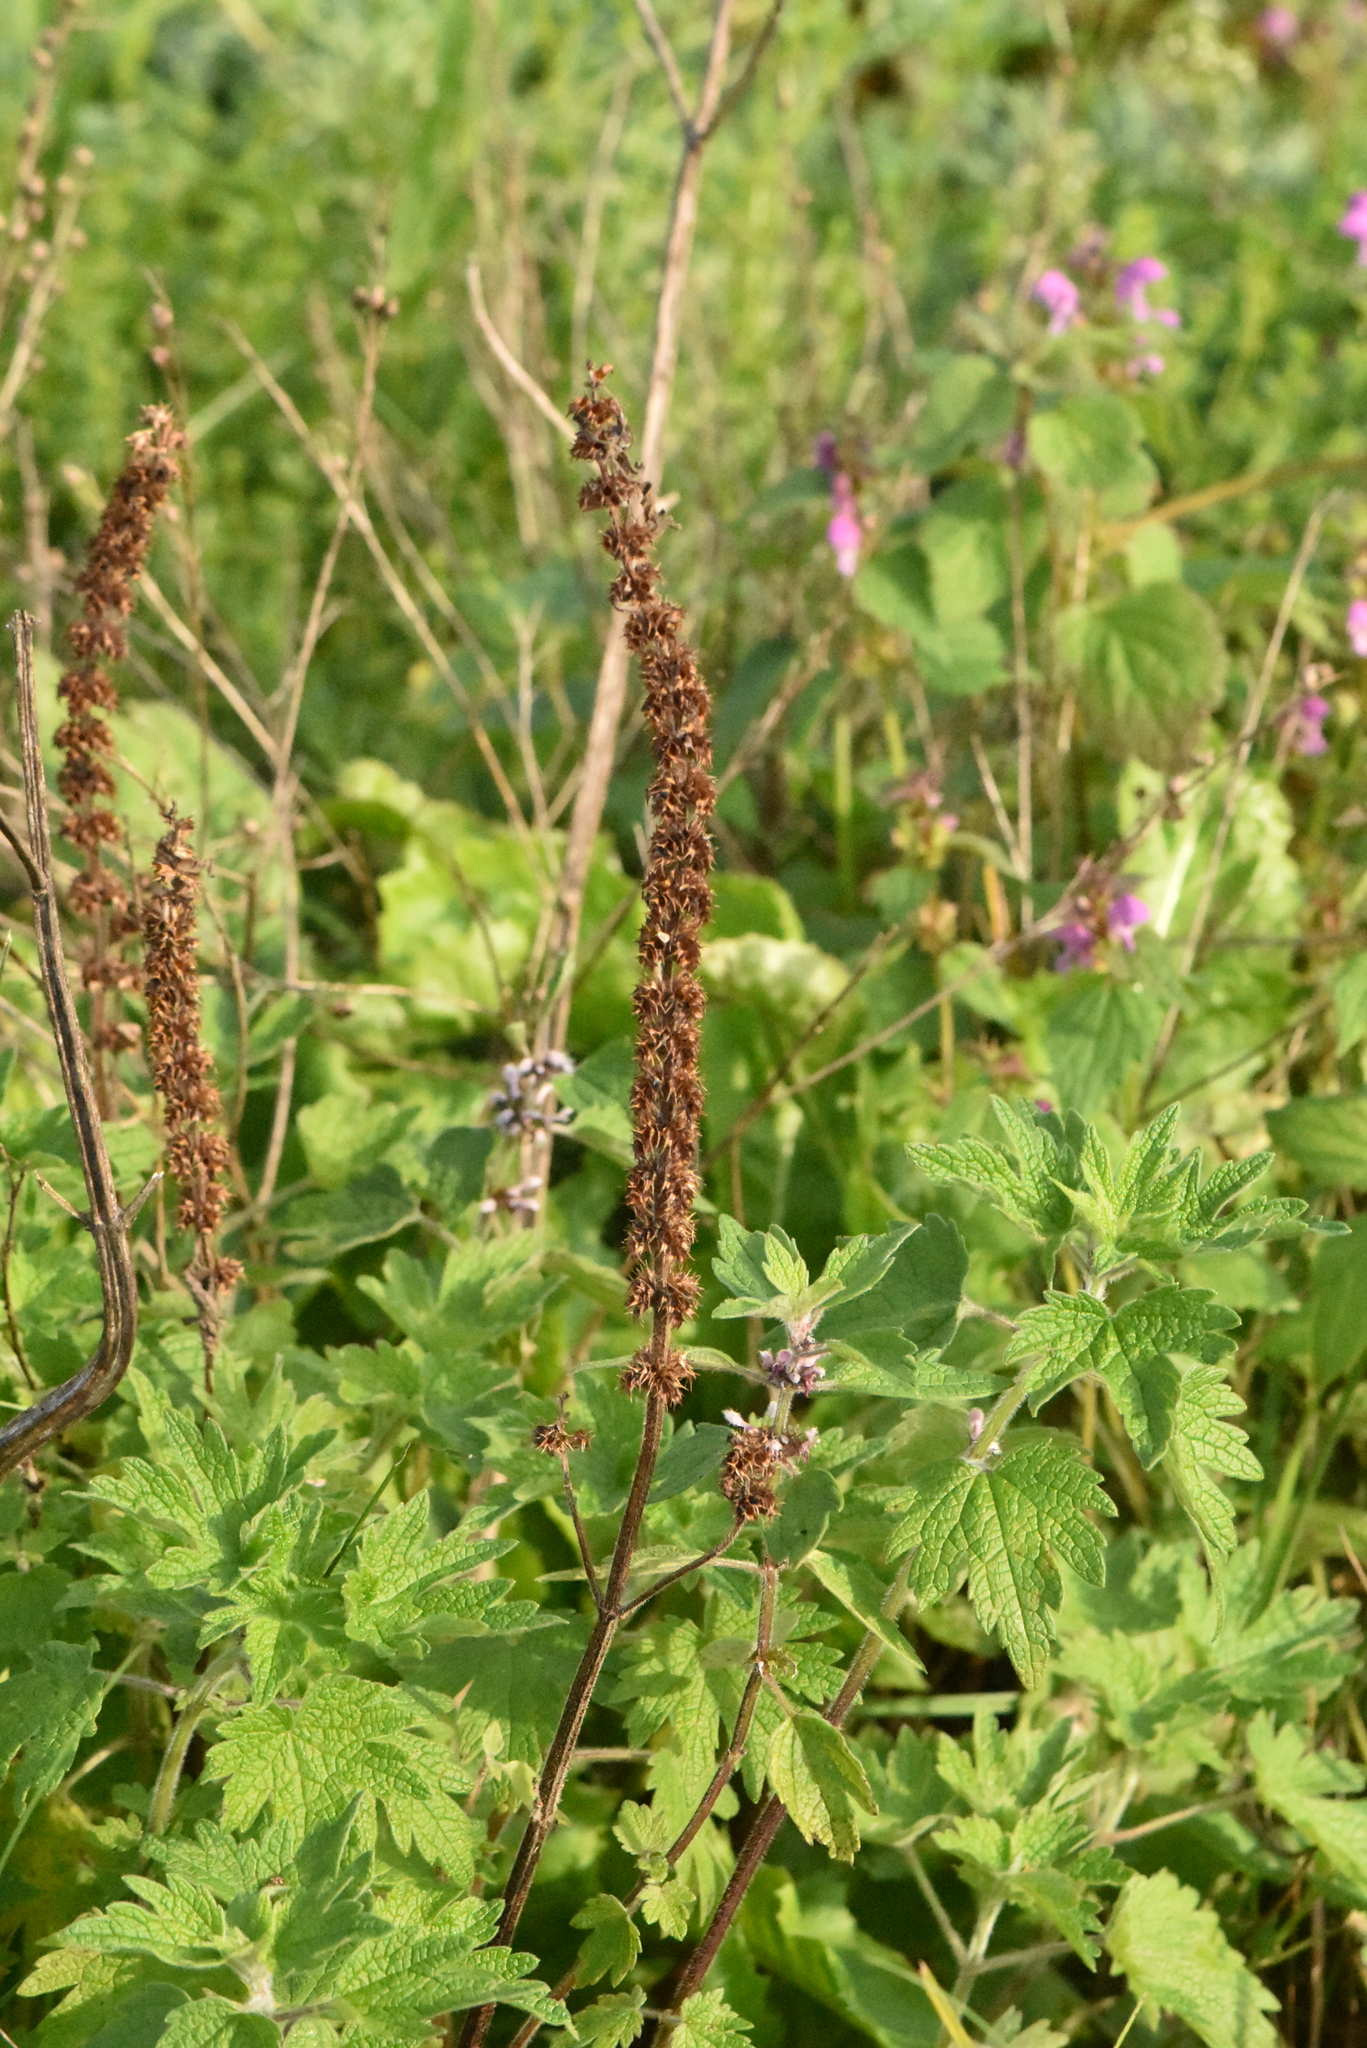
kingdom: Plantae
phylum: Tracheophyta
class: Magnoliopsida
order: Lamiales
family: Lamiaceae
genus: Leonurus
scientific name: Leonurus quinquelobatus
